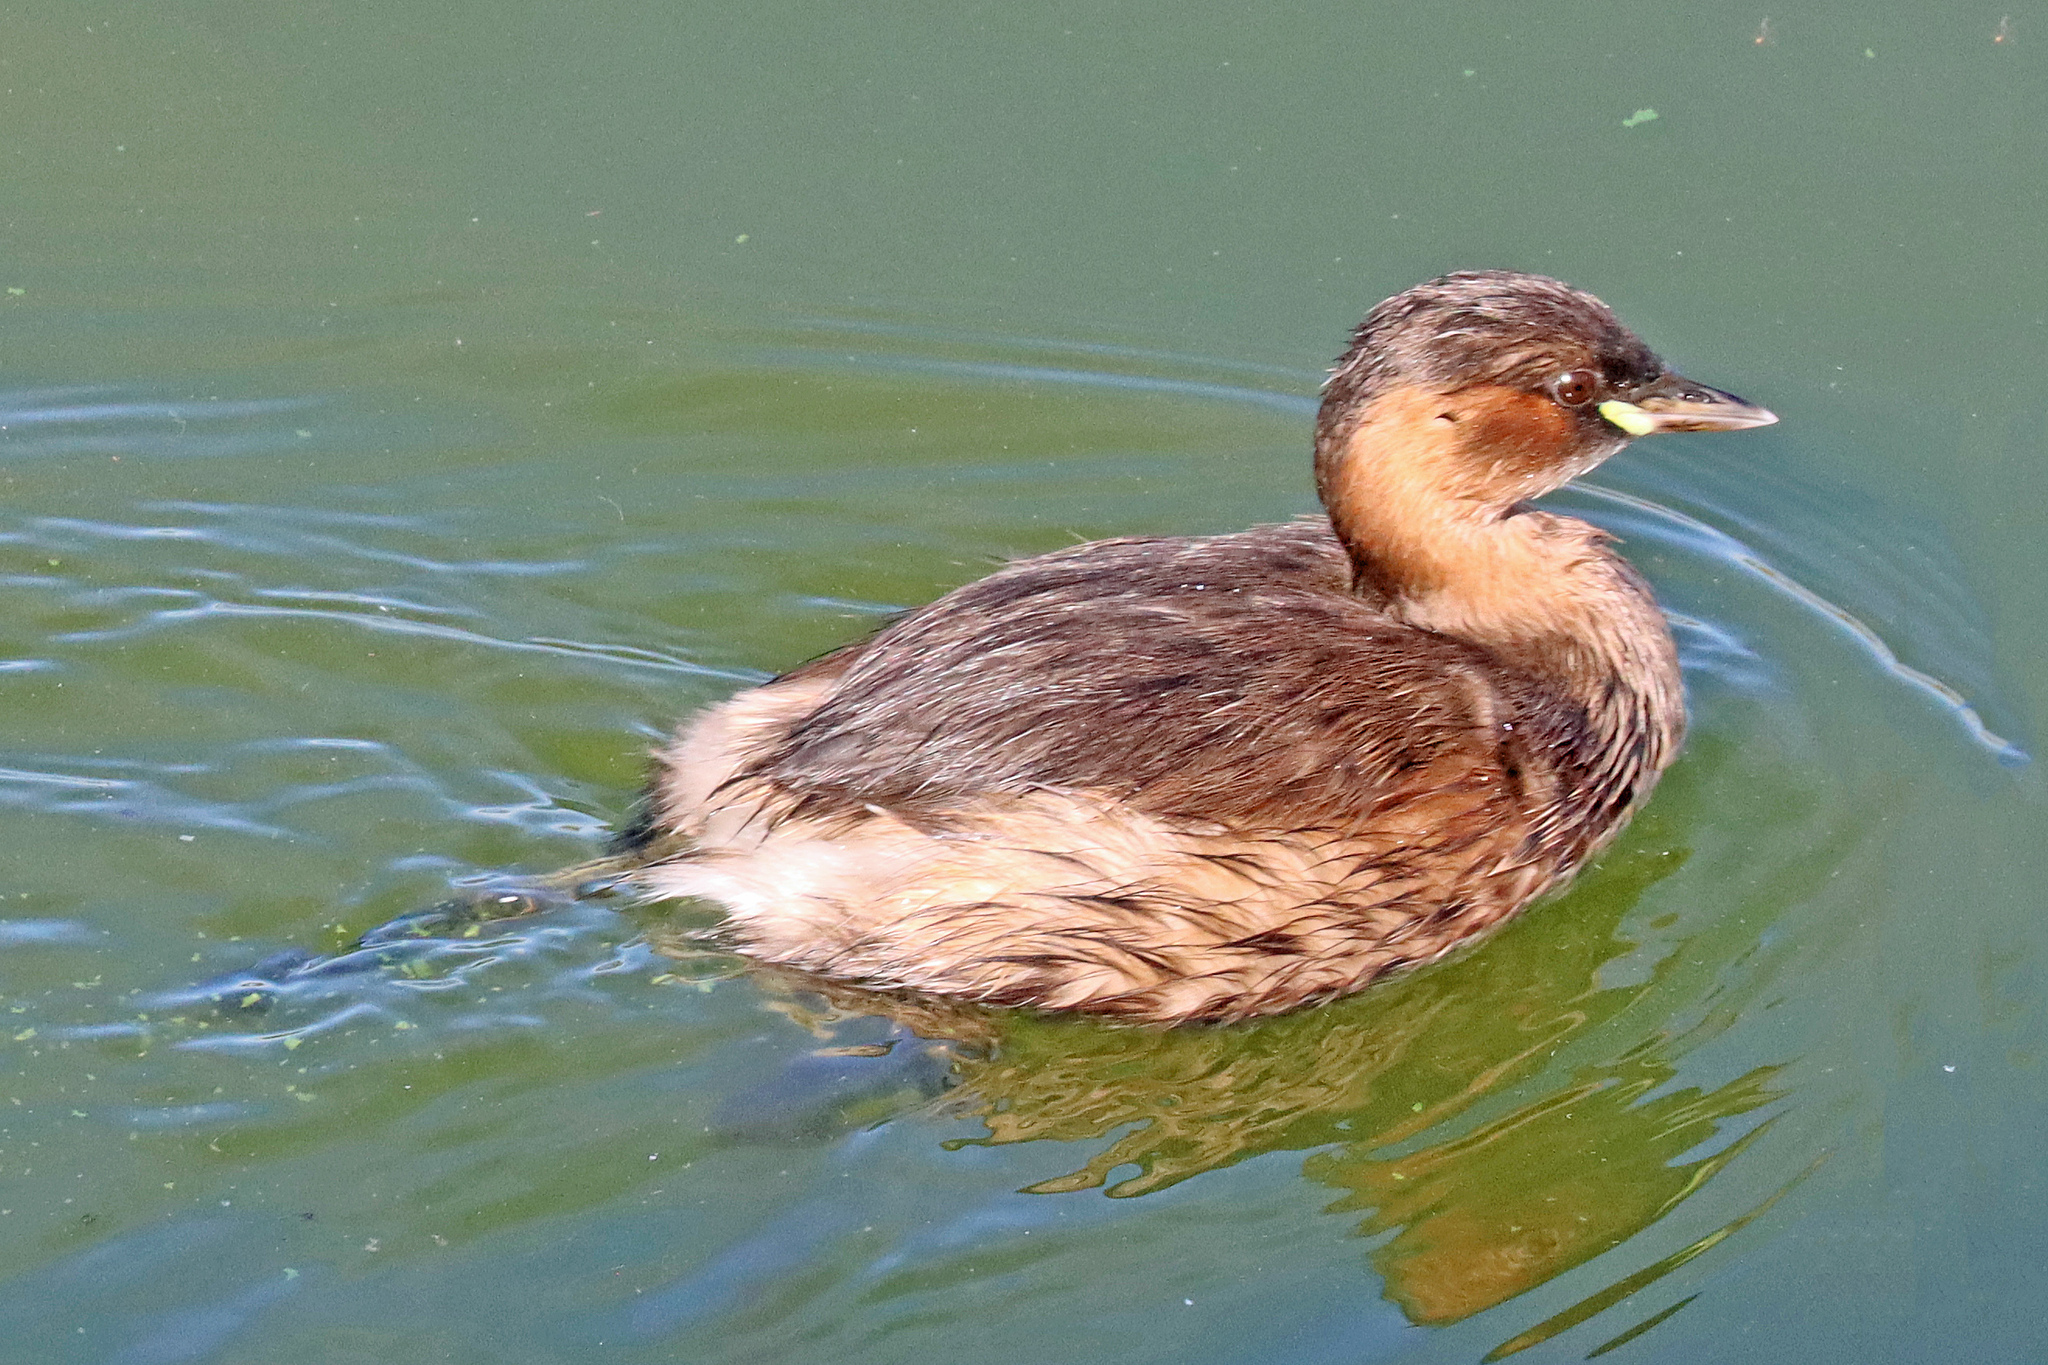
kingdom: Animalia
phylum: Chordata
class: Aves
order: Podicipediformes
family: Podicipedidae
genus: Tachybaptus
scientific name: Tachybaptus ruficollis
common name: Little grebe
